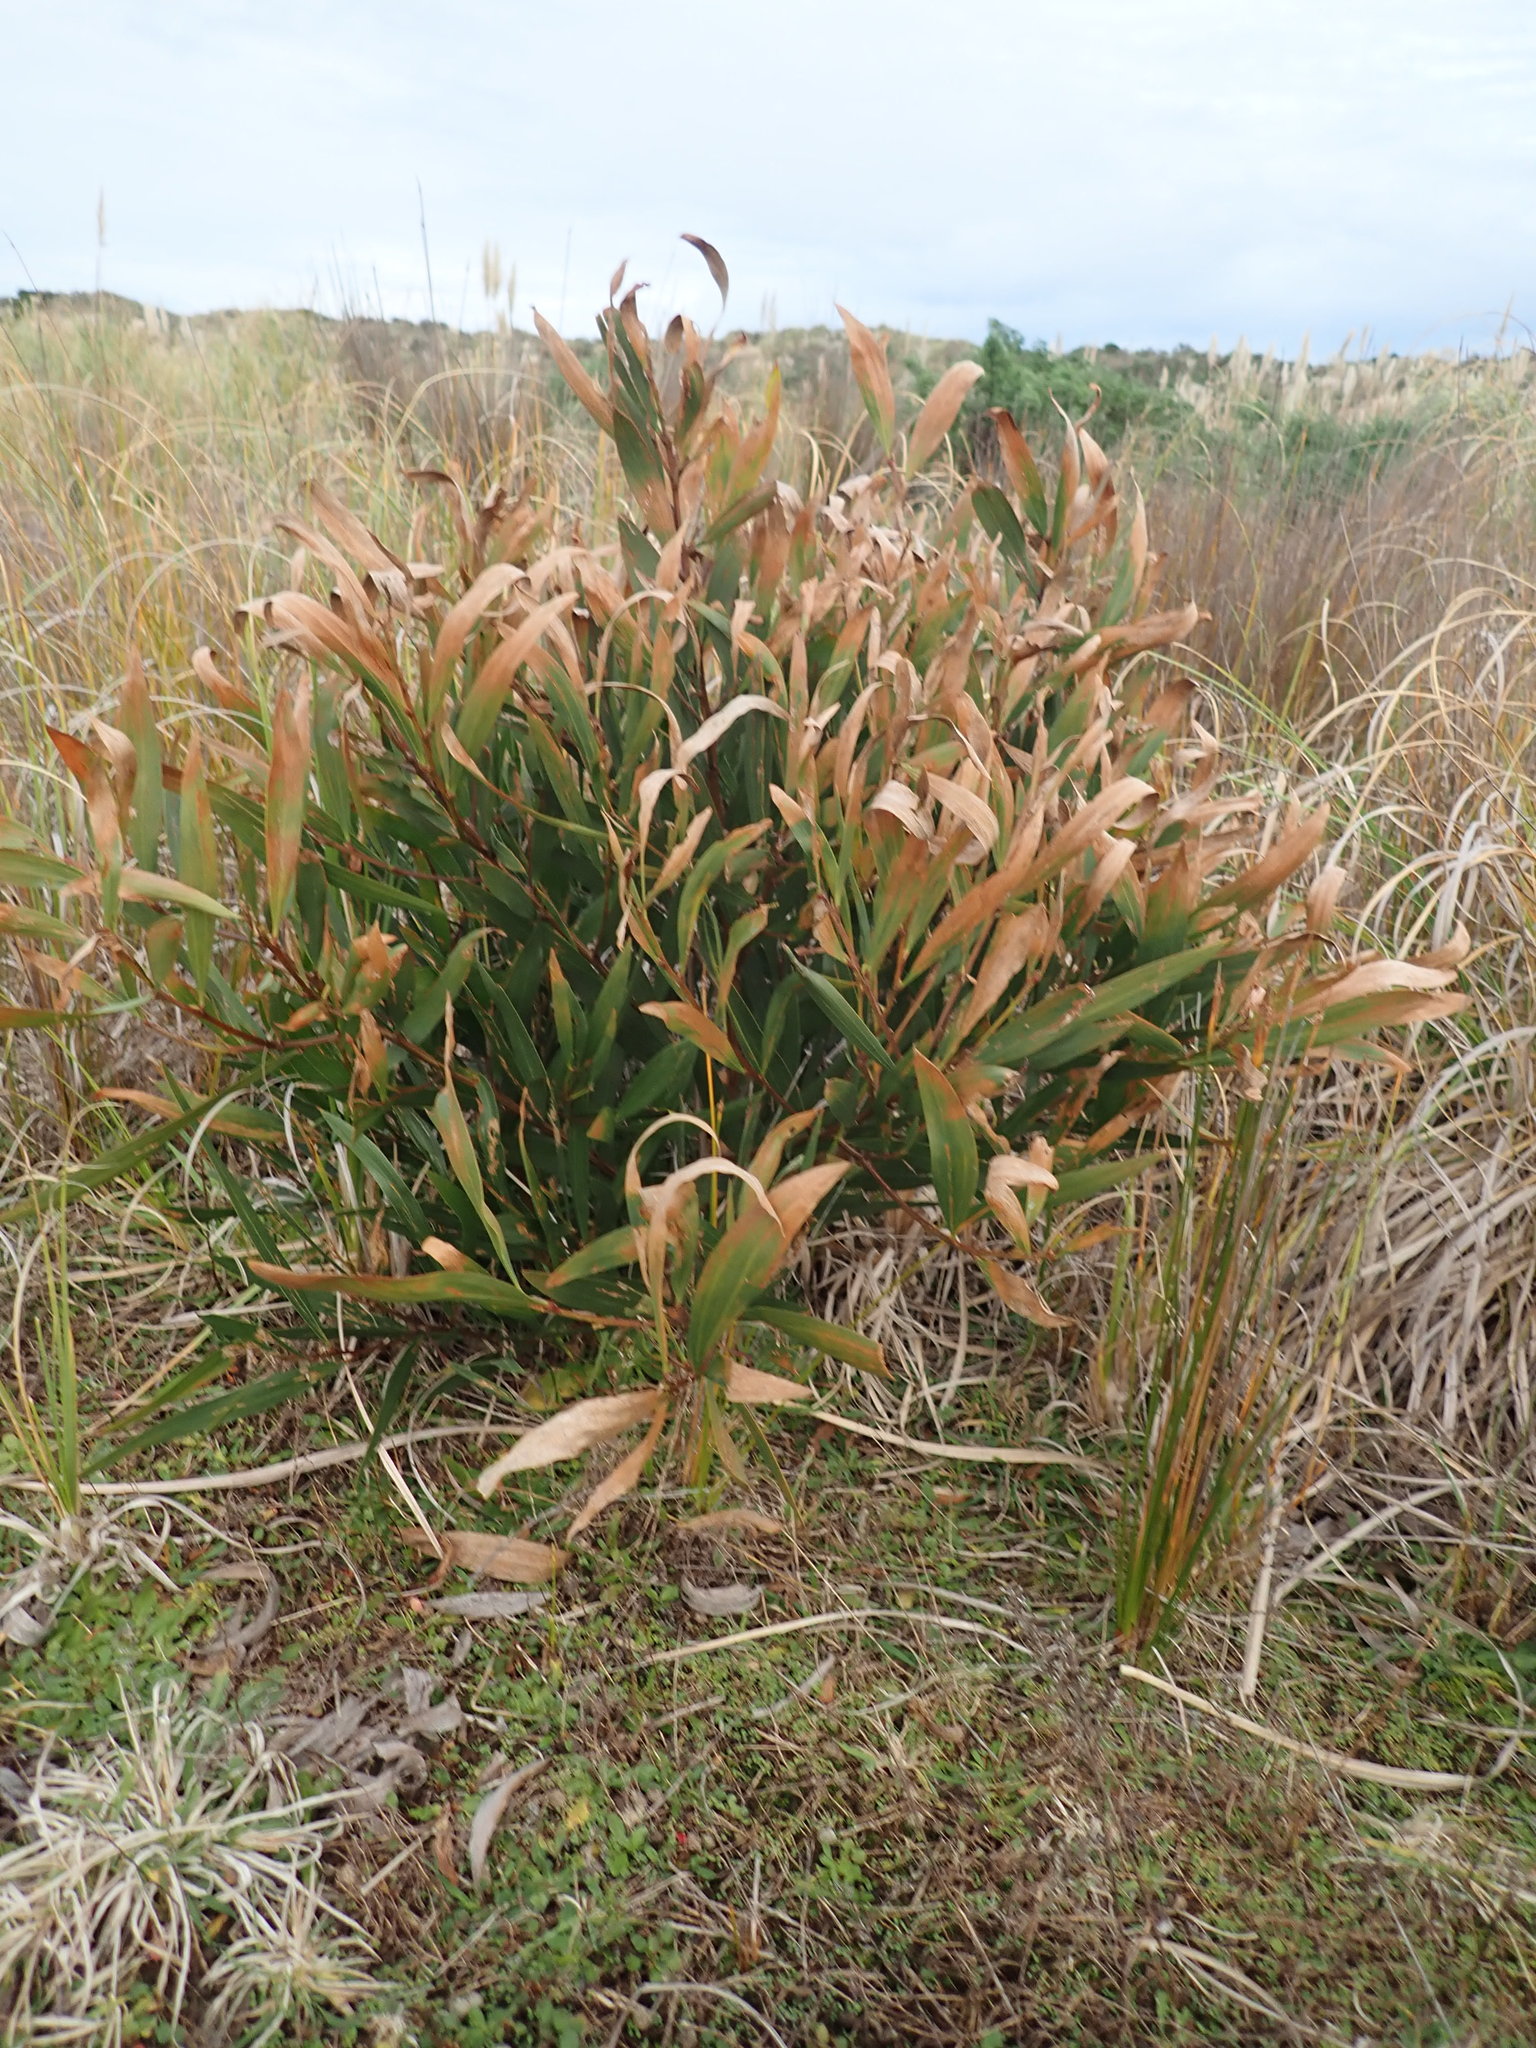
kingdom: Plantae
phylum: Tracheophyta
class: Magnoliopsida
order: Fabales
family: Fabaceae
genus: Acacia
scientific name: Acacia longifolia
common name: Sydney golden wattle
